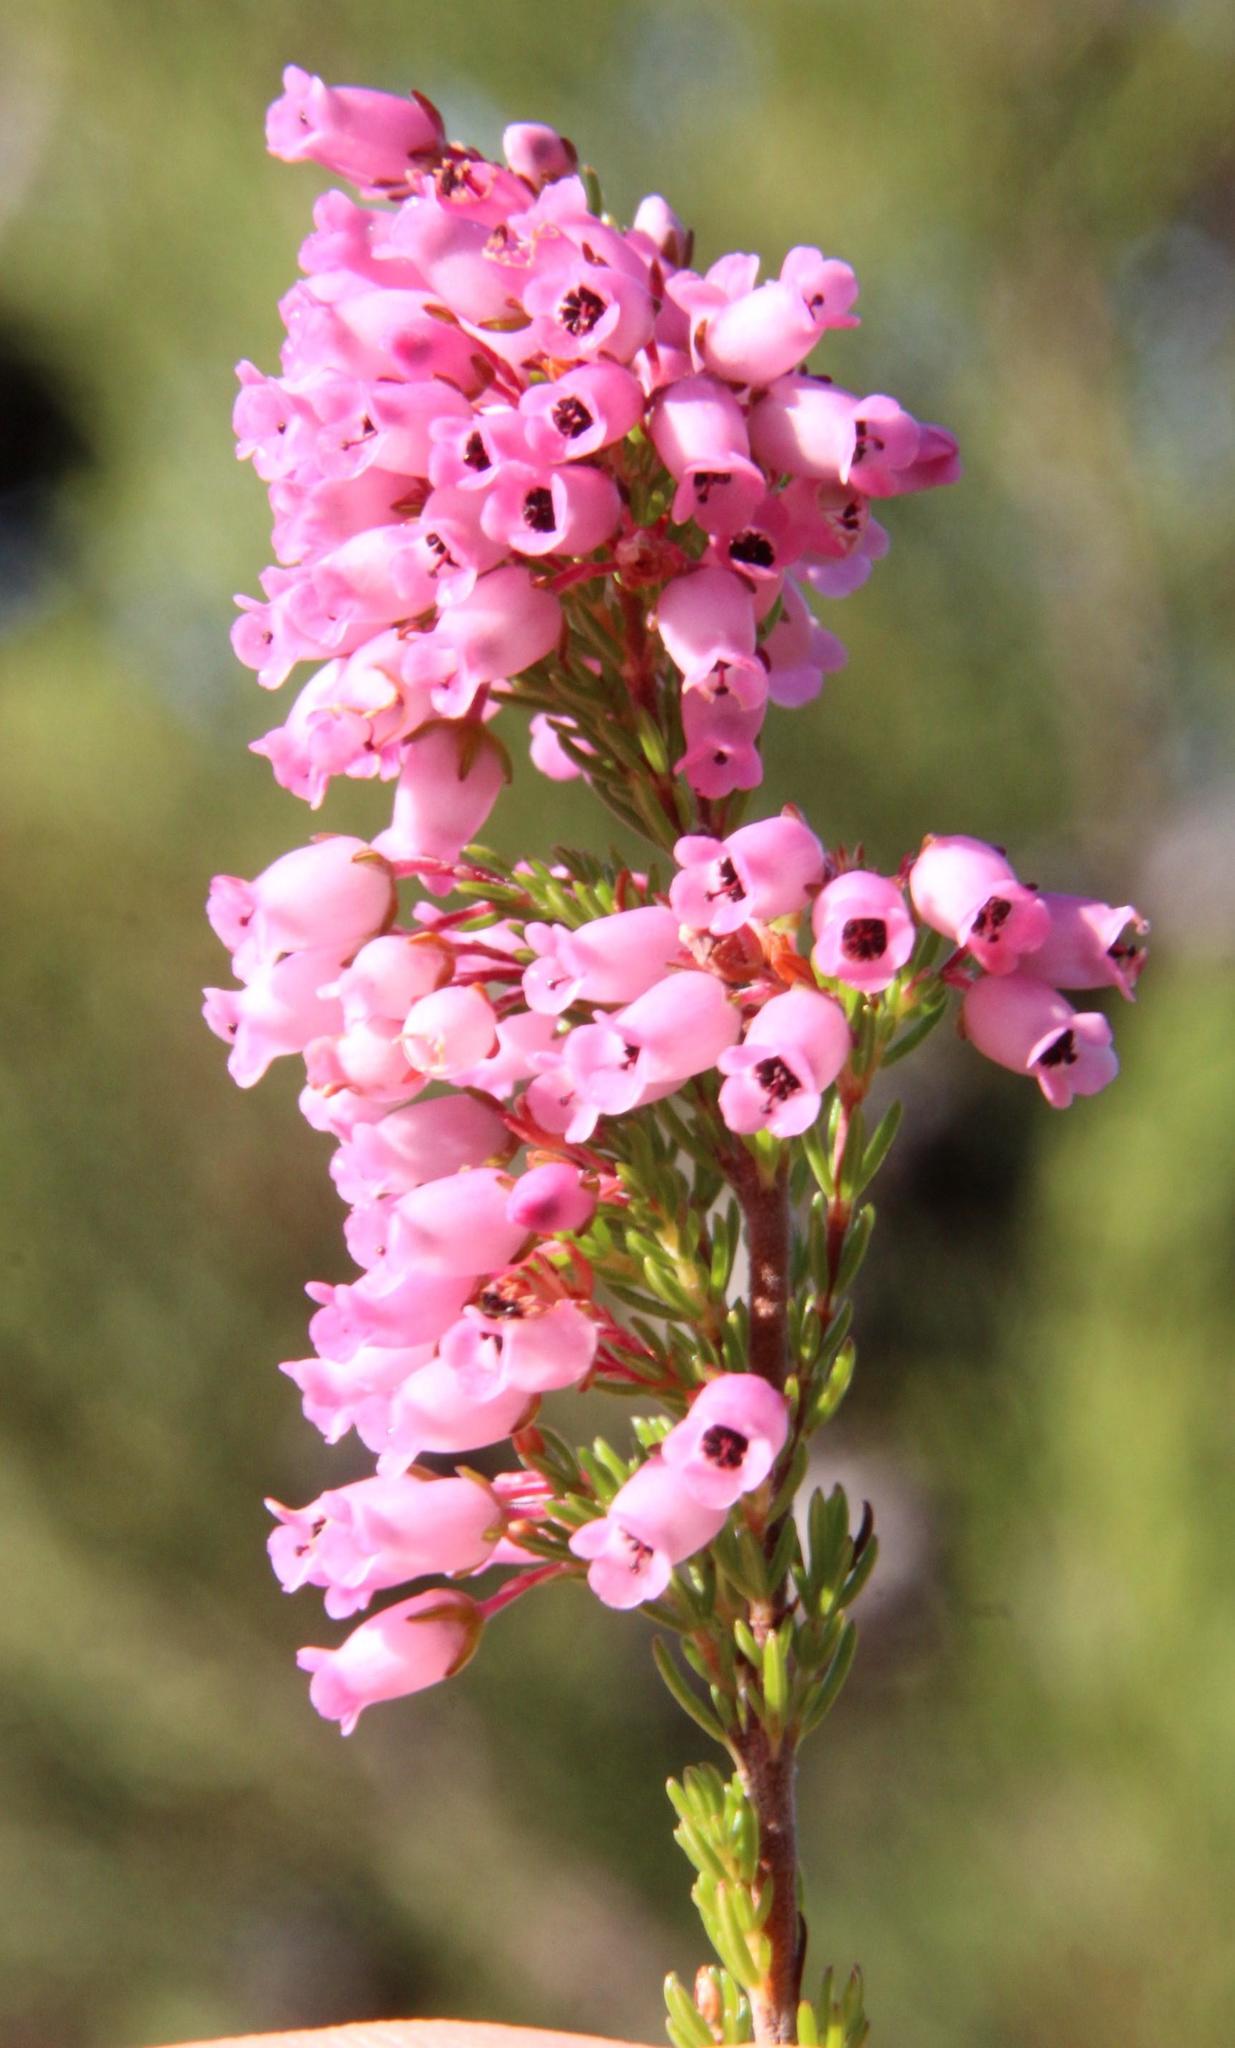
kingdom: Plantae
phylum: Tracheophyta
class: Magnoliopsida
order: Ericales
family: Ericaceae
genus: Erica
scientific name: Erica tenella
